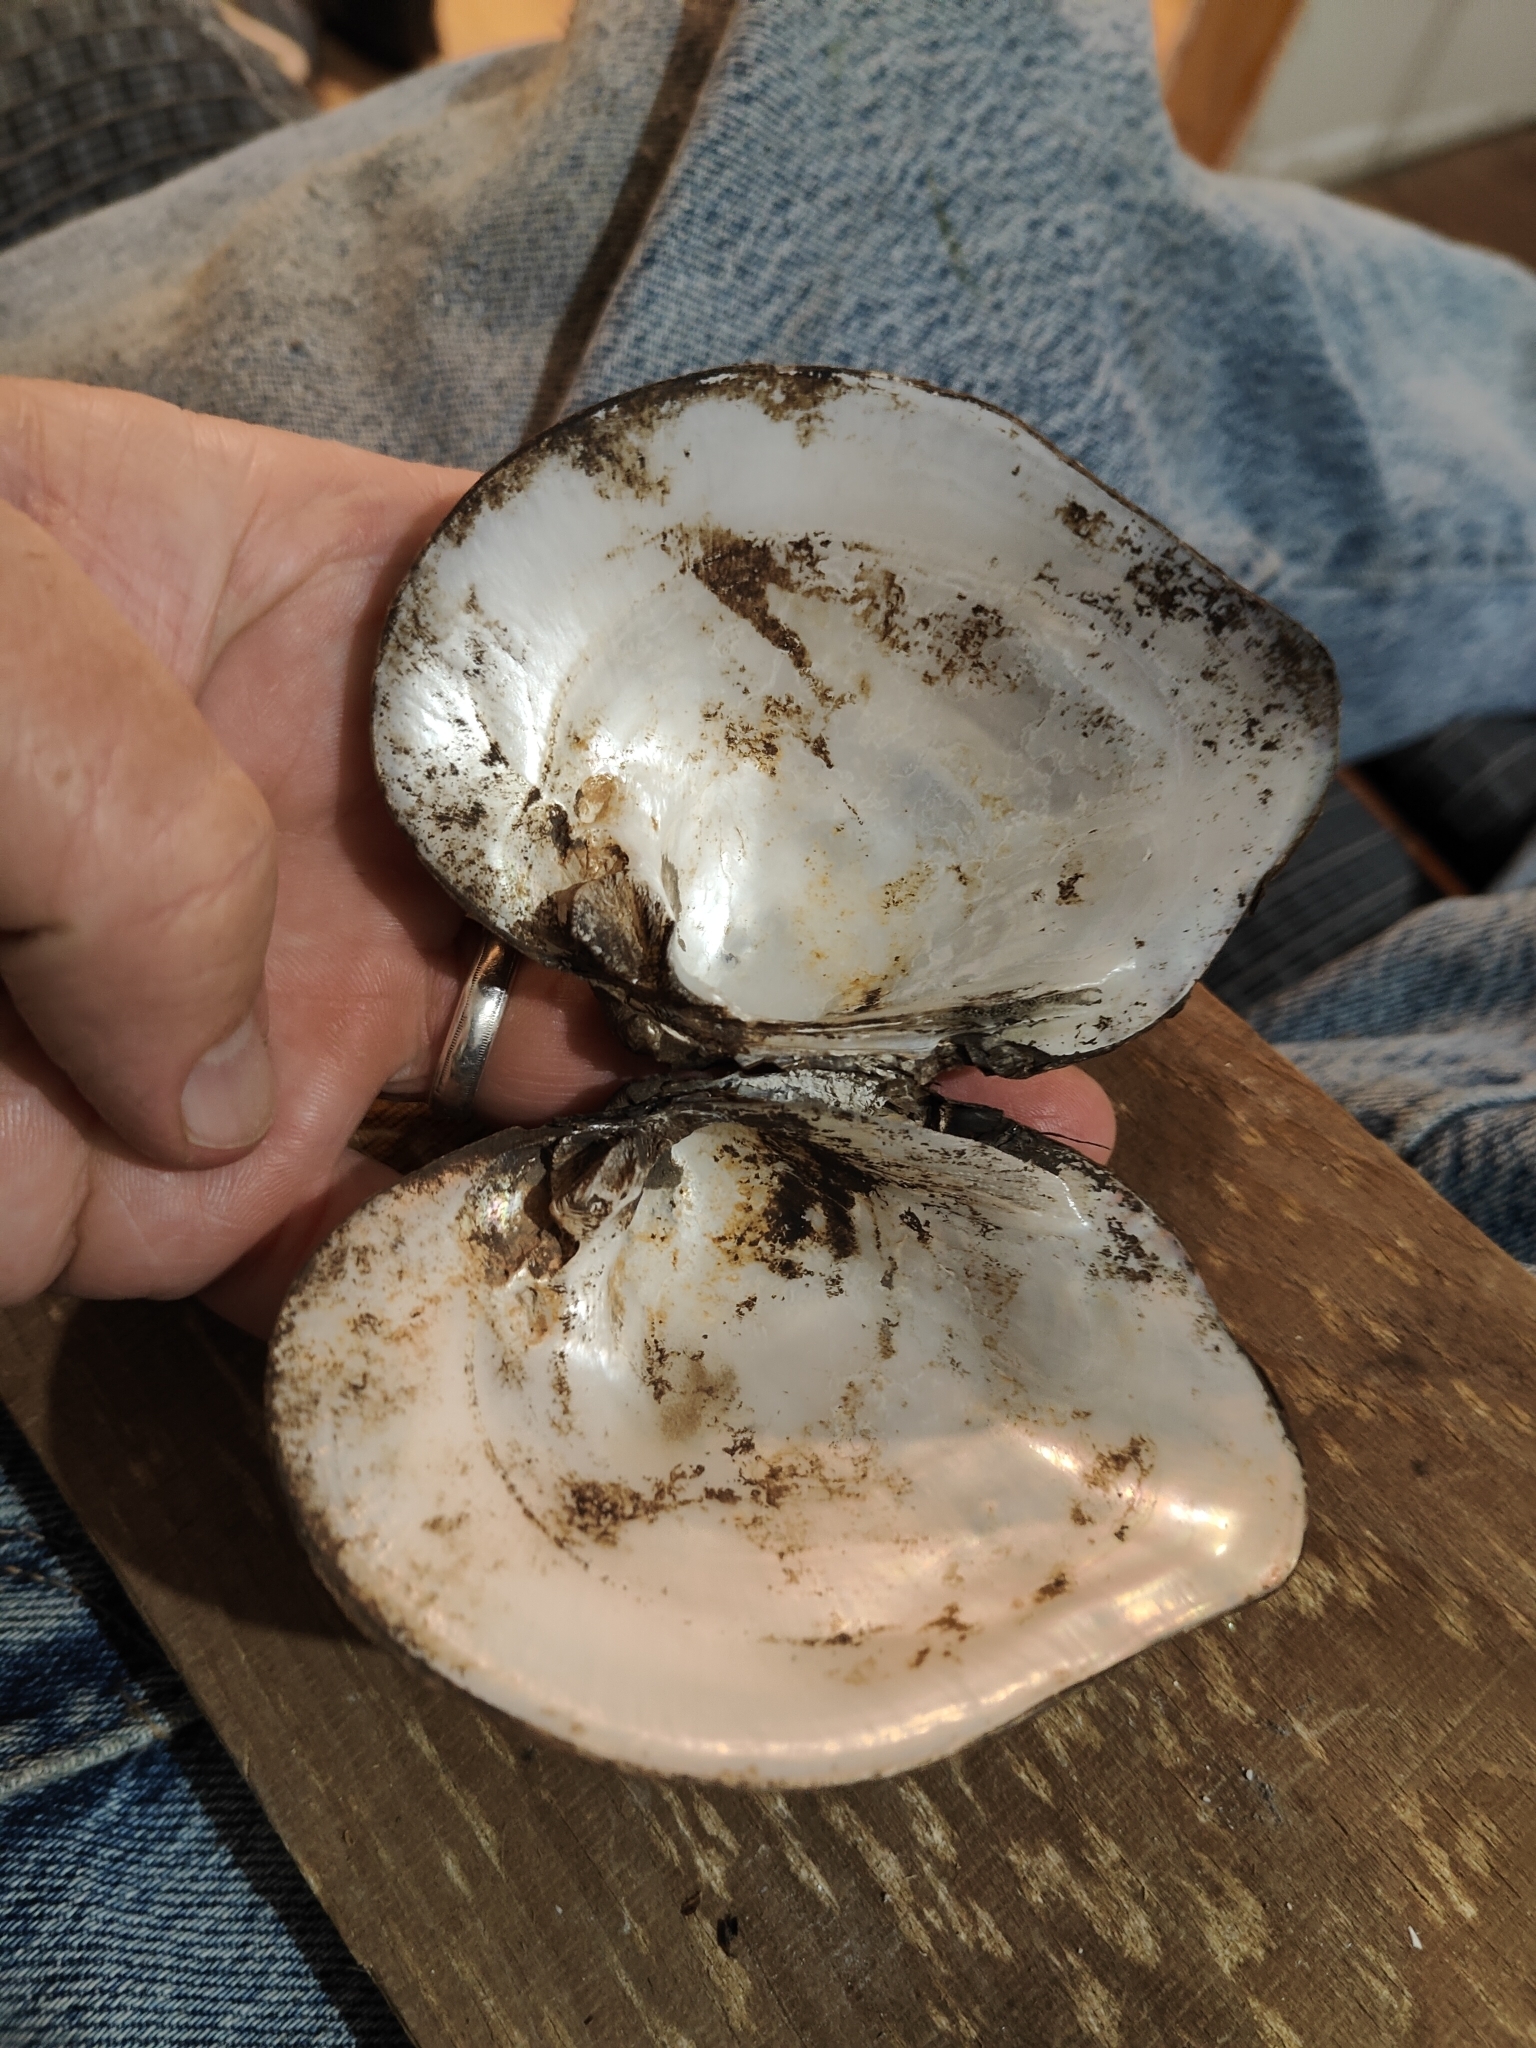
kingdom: Animalia
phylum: Mollusca
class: Bivalvia
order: Unionida
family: Unionidae
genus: Quadrula
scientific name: Quadrula quadrula
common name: Mapleleaf
